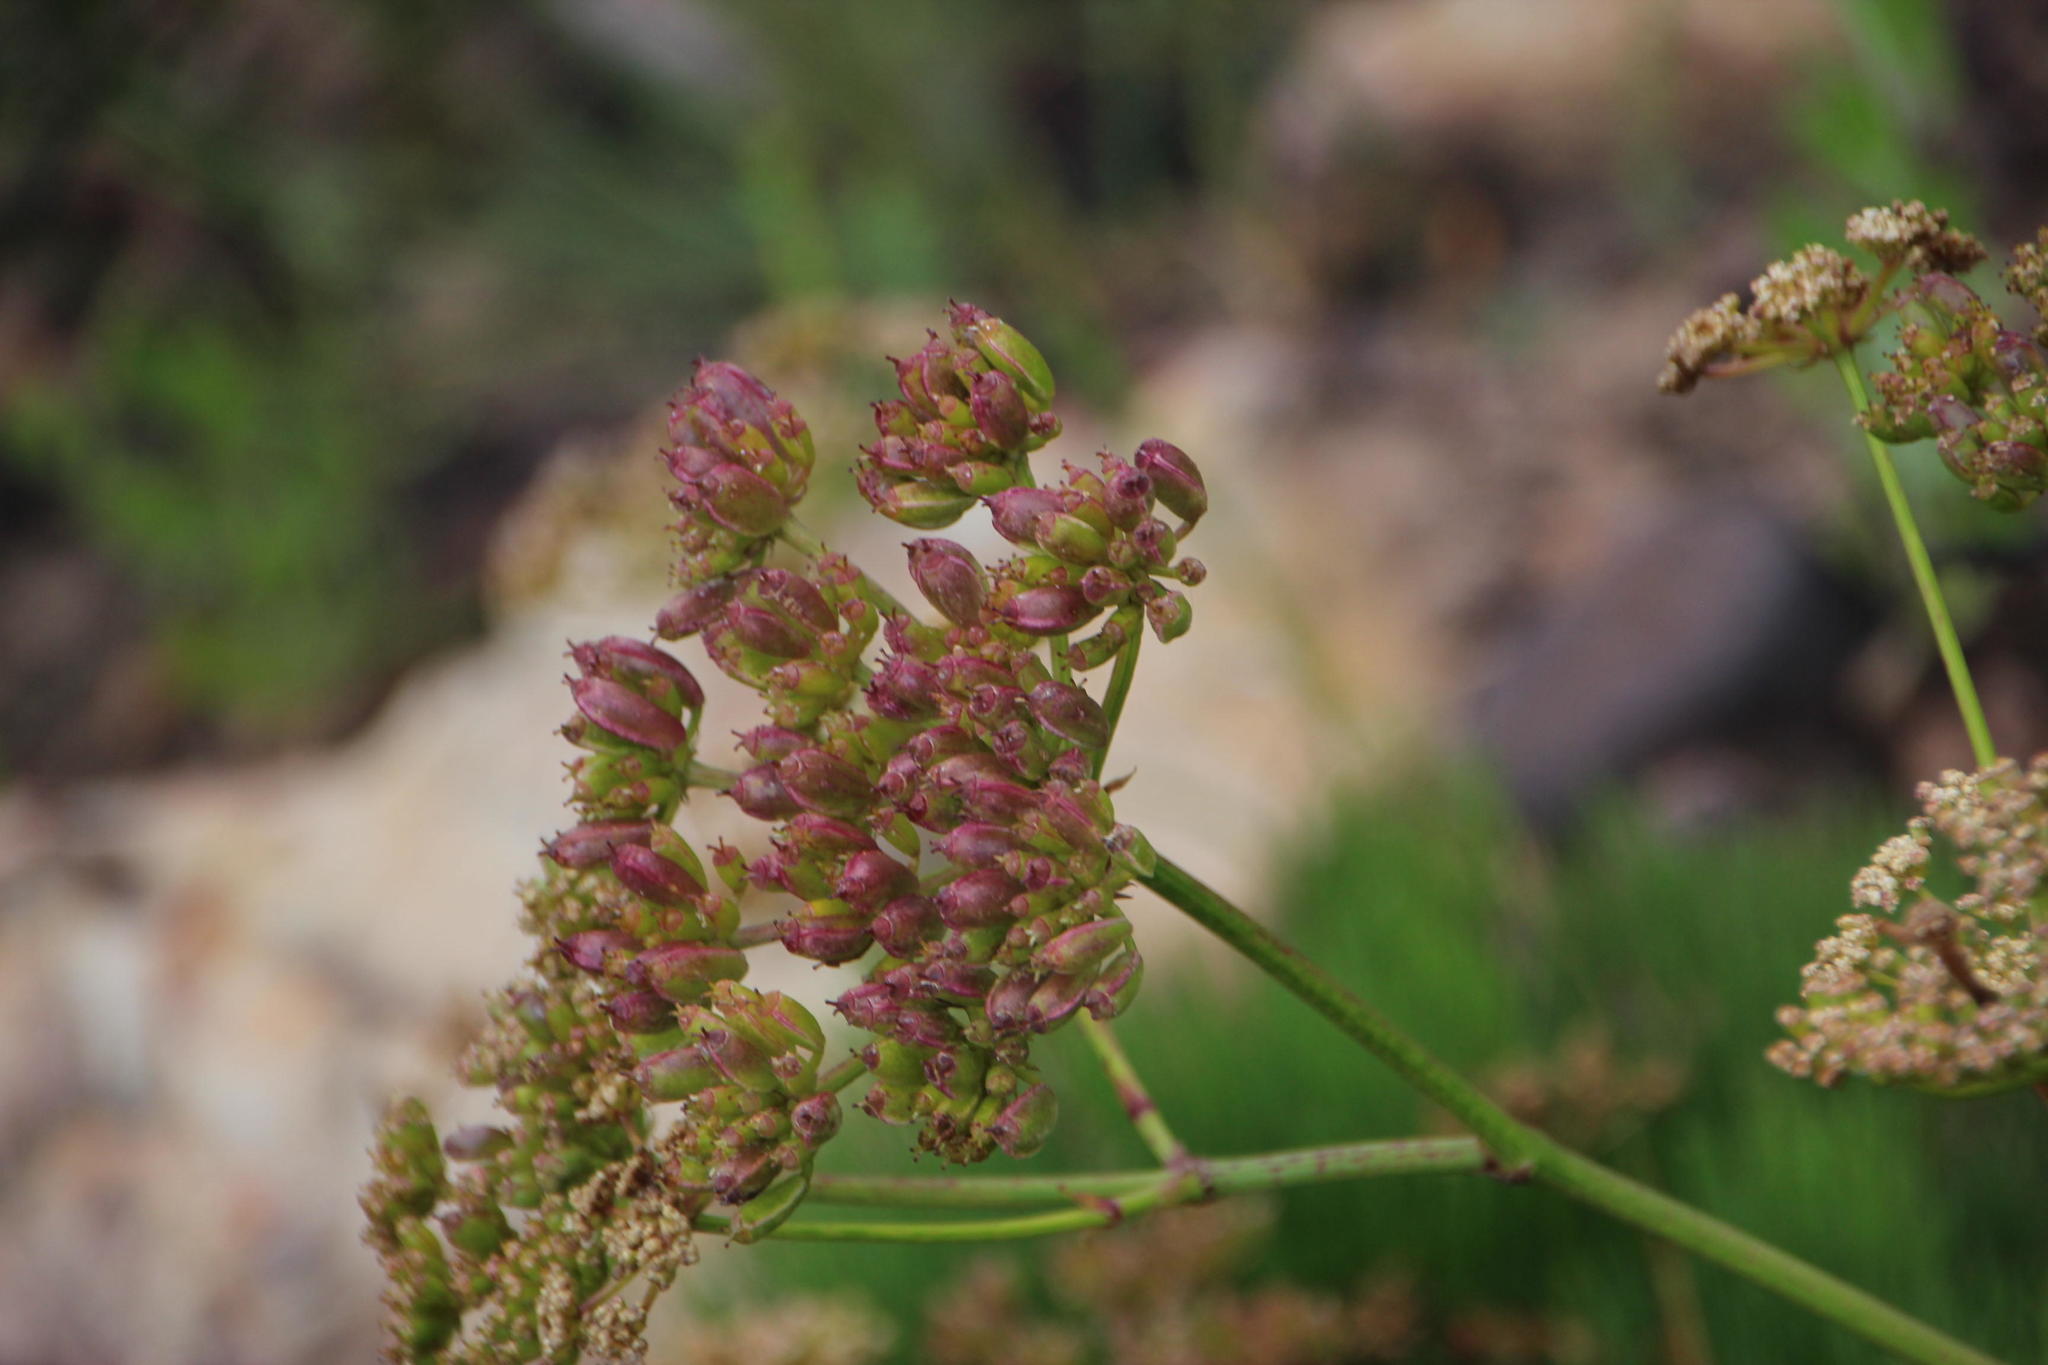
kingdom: Plantae
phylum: Tracheophyta
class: Magnoliopsida
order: Apiales
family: Apiaceae
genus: Nanobubon
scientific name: Nanobubon strictum
